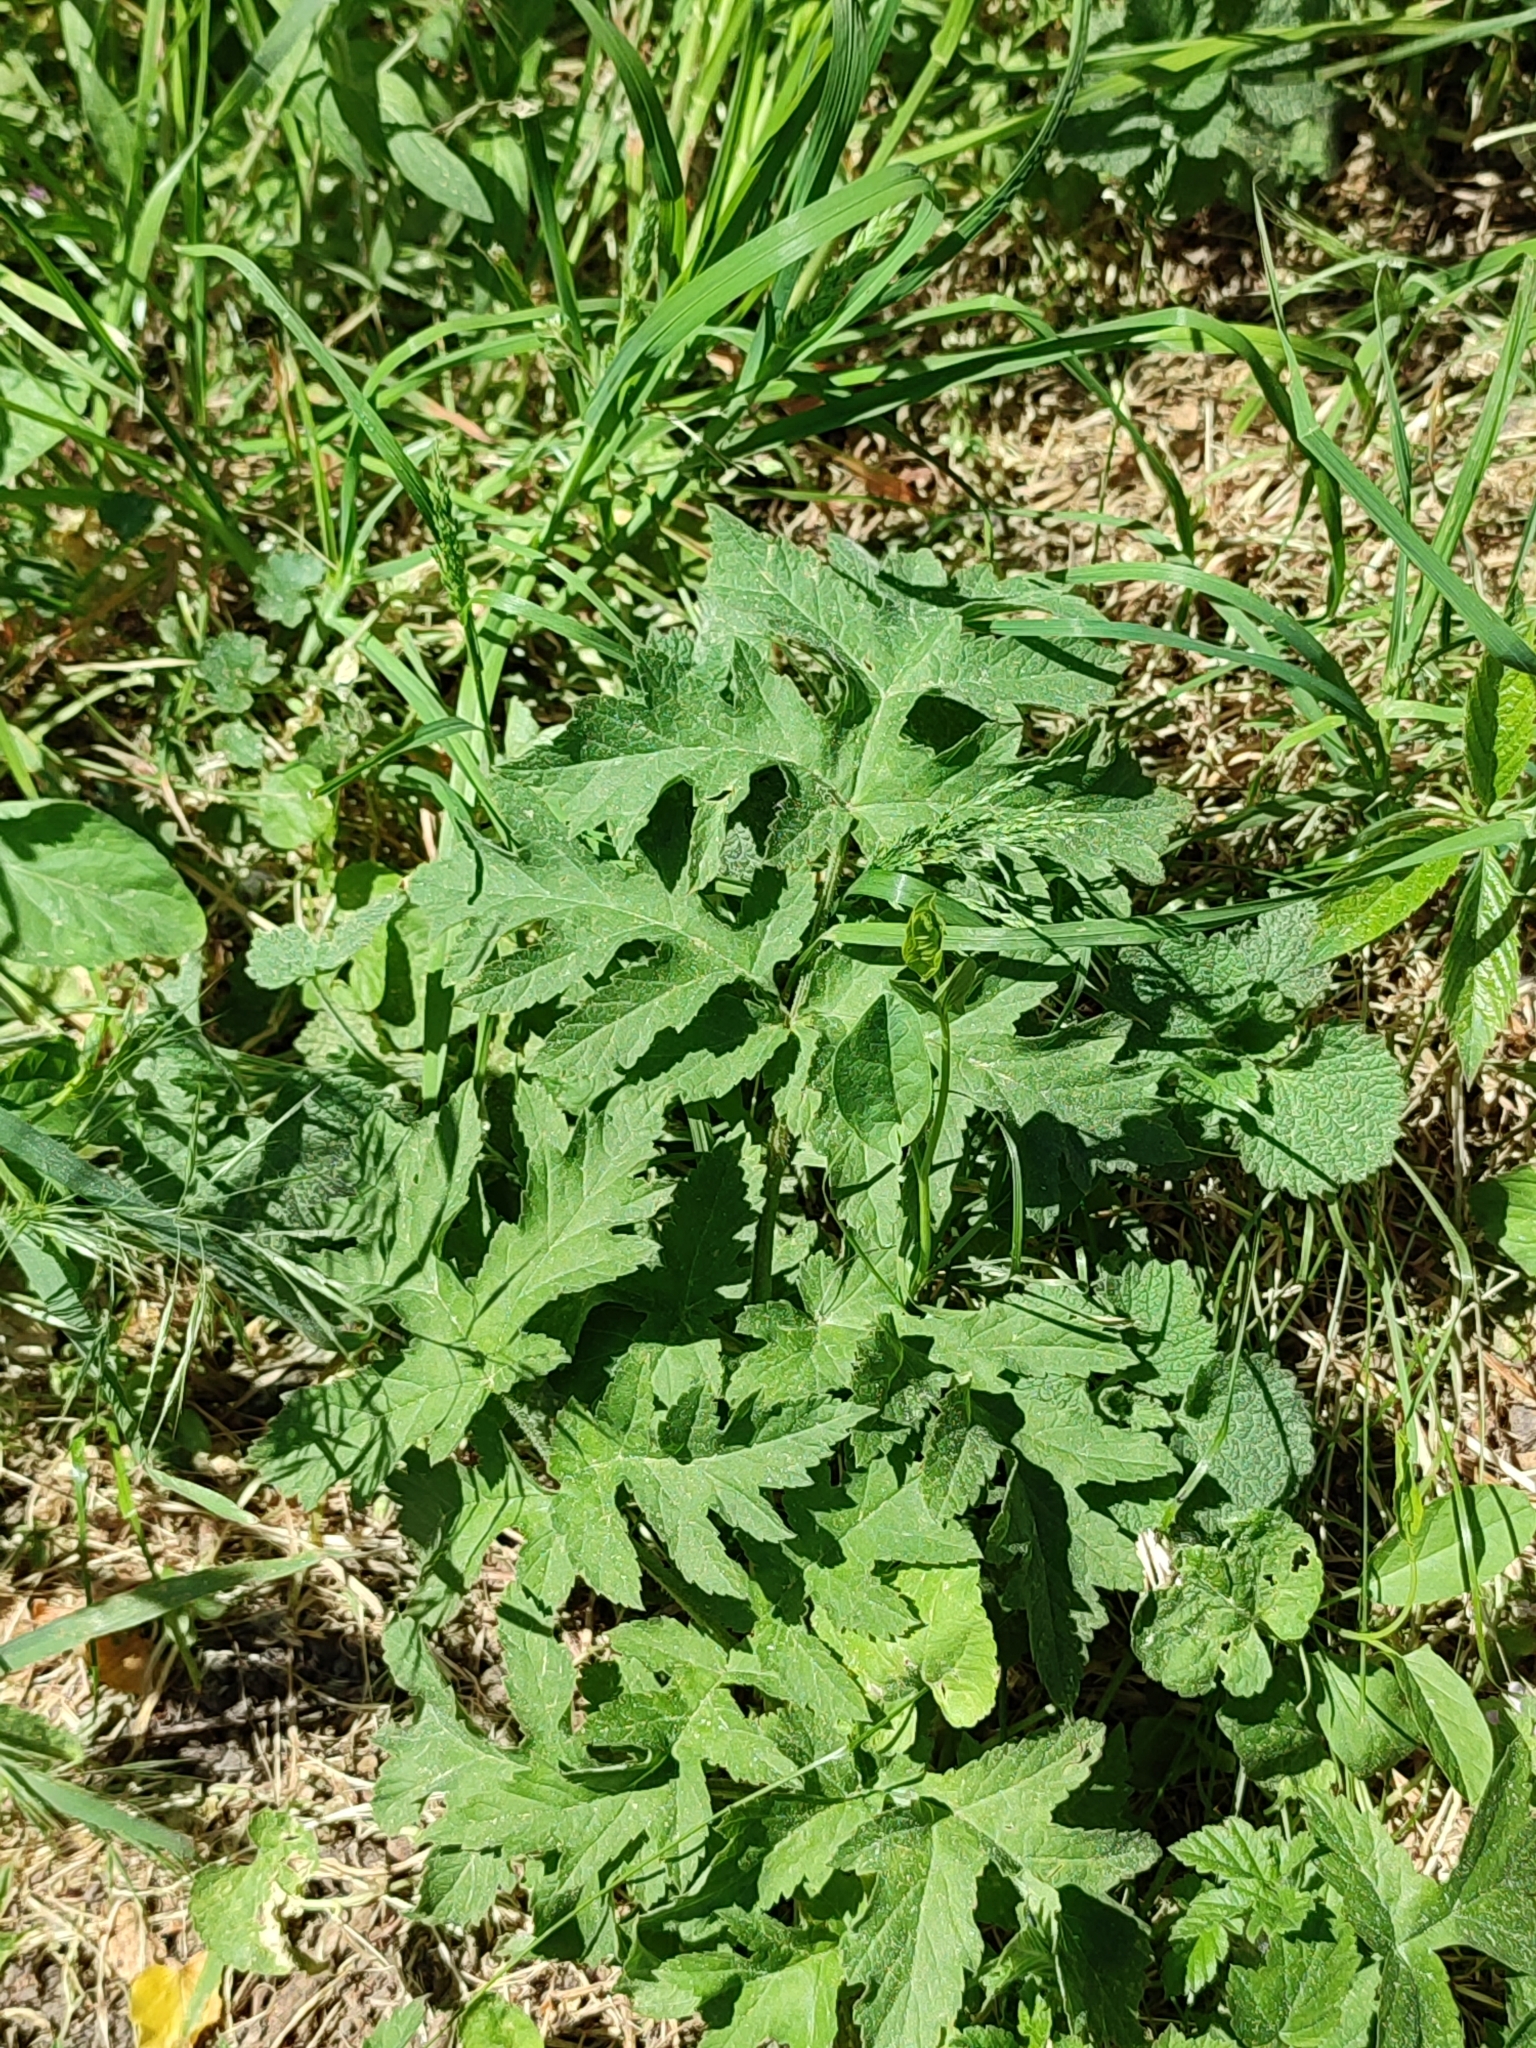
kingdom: Plantae
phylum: Tracheophyta
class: Magnoliopsida
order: Apiales
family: Apiaceae
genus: Heracleum
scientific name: Heracleum sphondylium
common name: Hogweed
